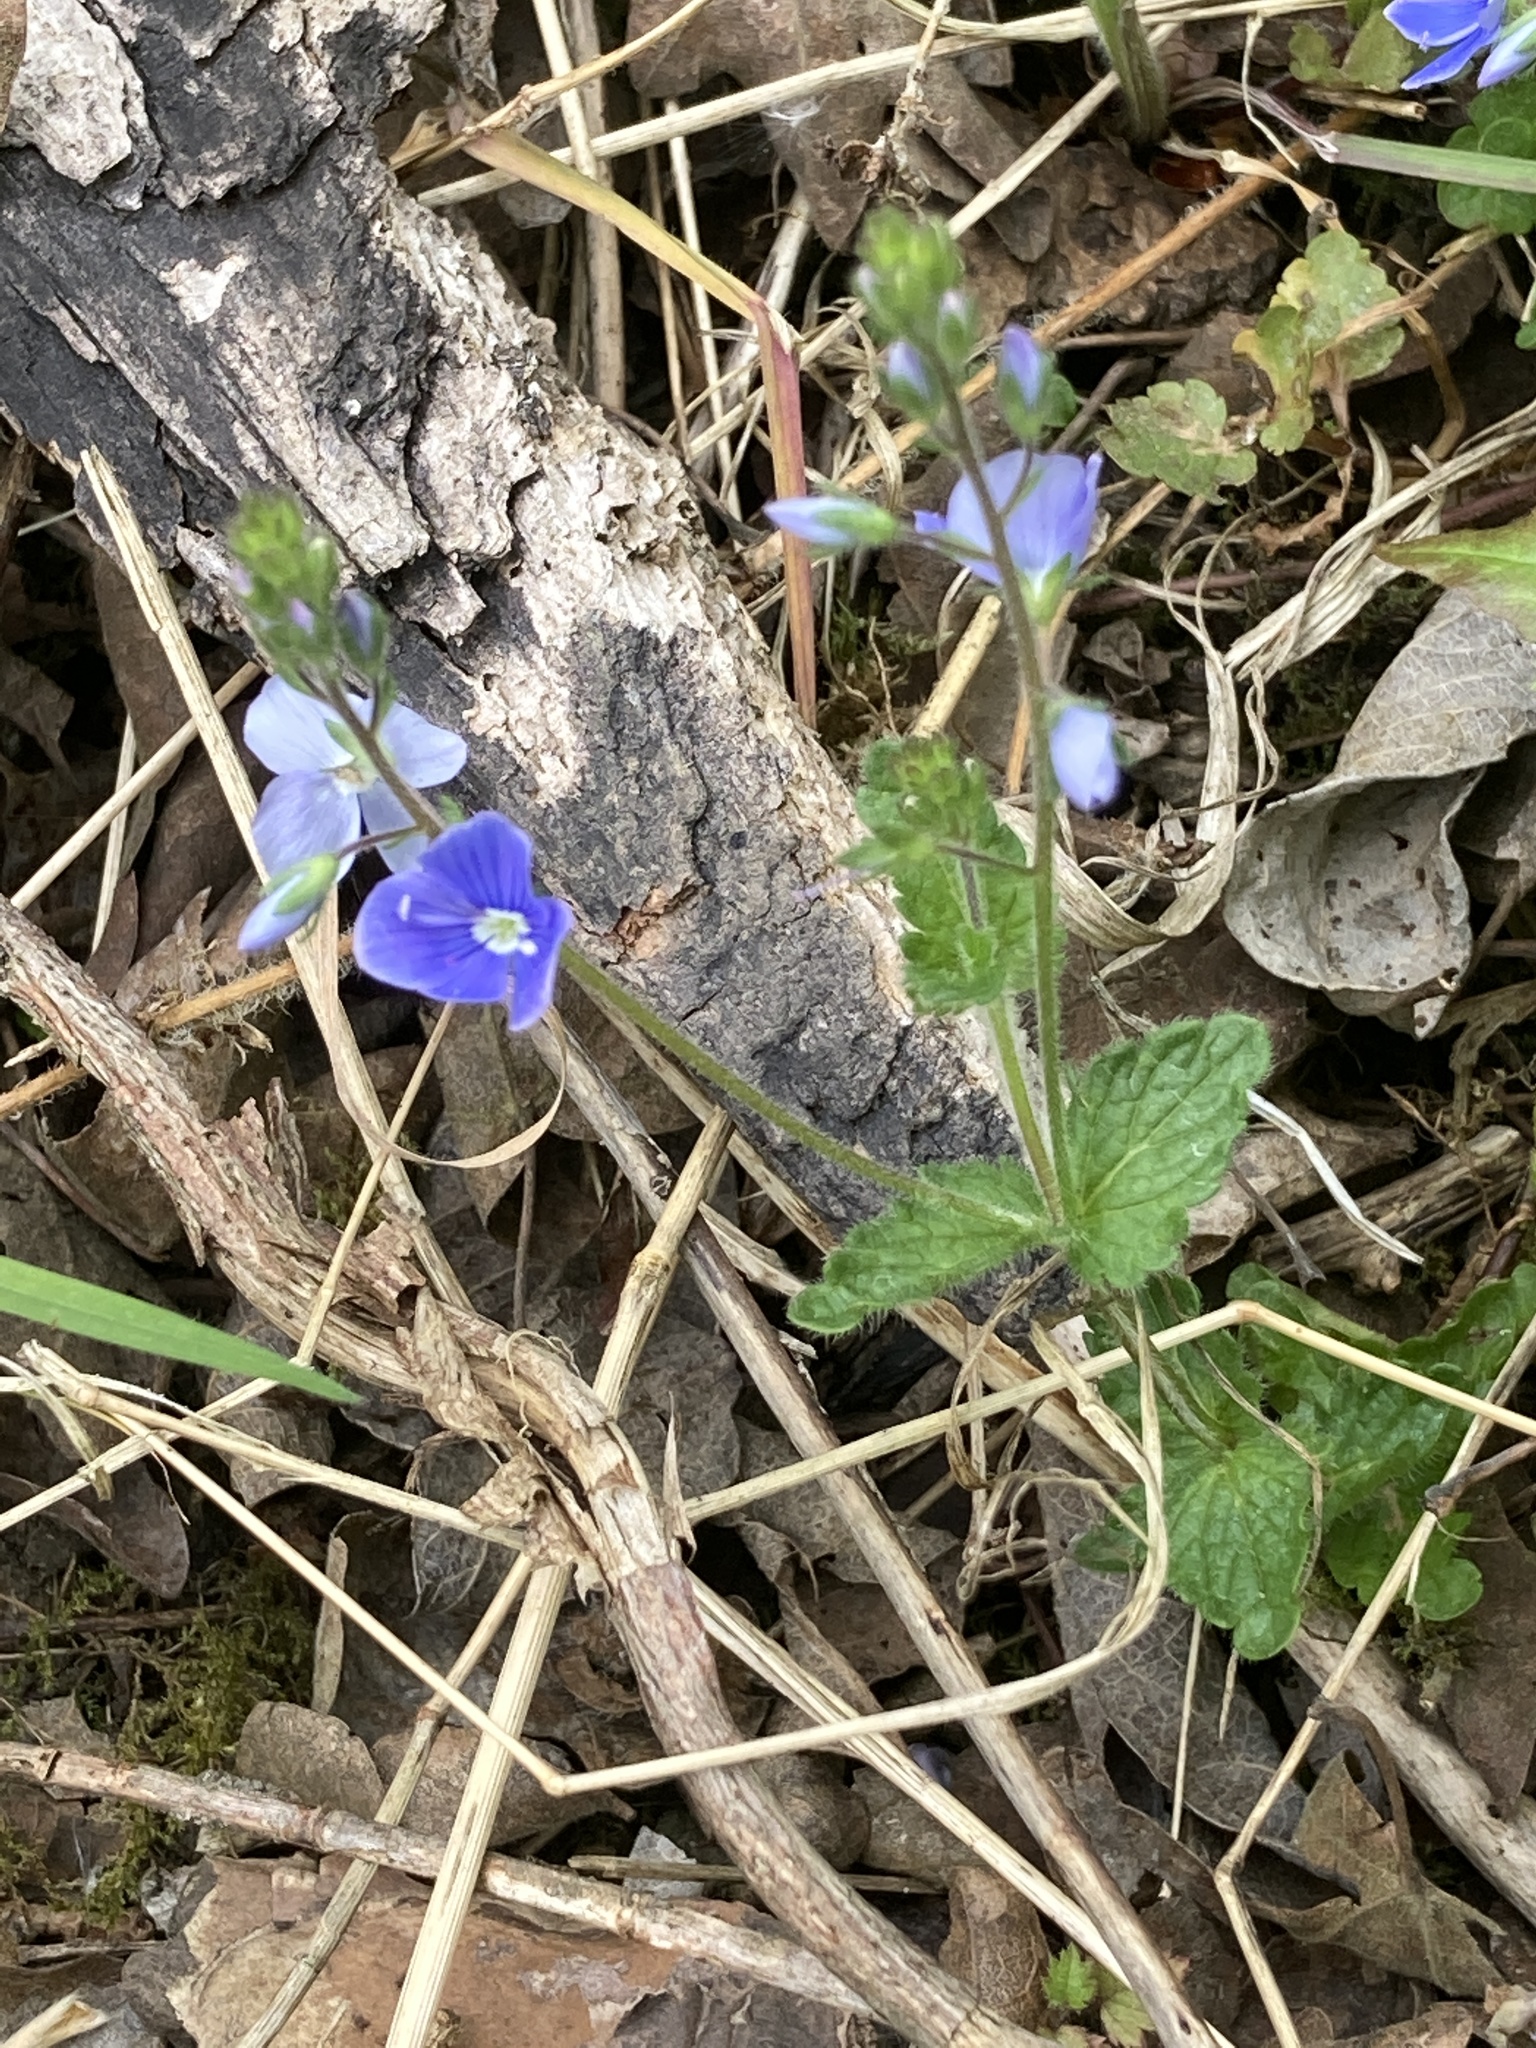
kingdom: Plantae
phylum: Tracheophyta
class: Magnoliopsida
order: Lamiales
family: Plantaginaceae
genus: Veronica
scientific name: Veronica chamaedrys
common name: Germander speedwell
